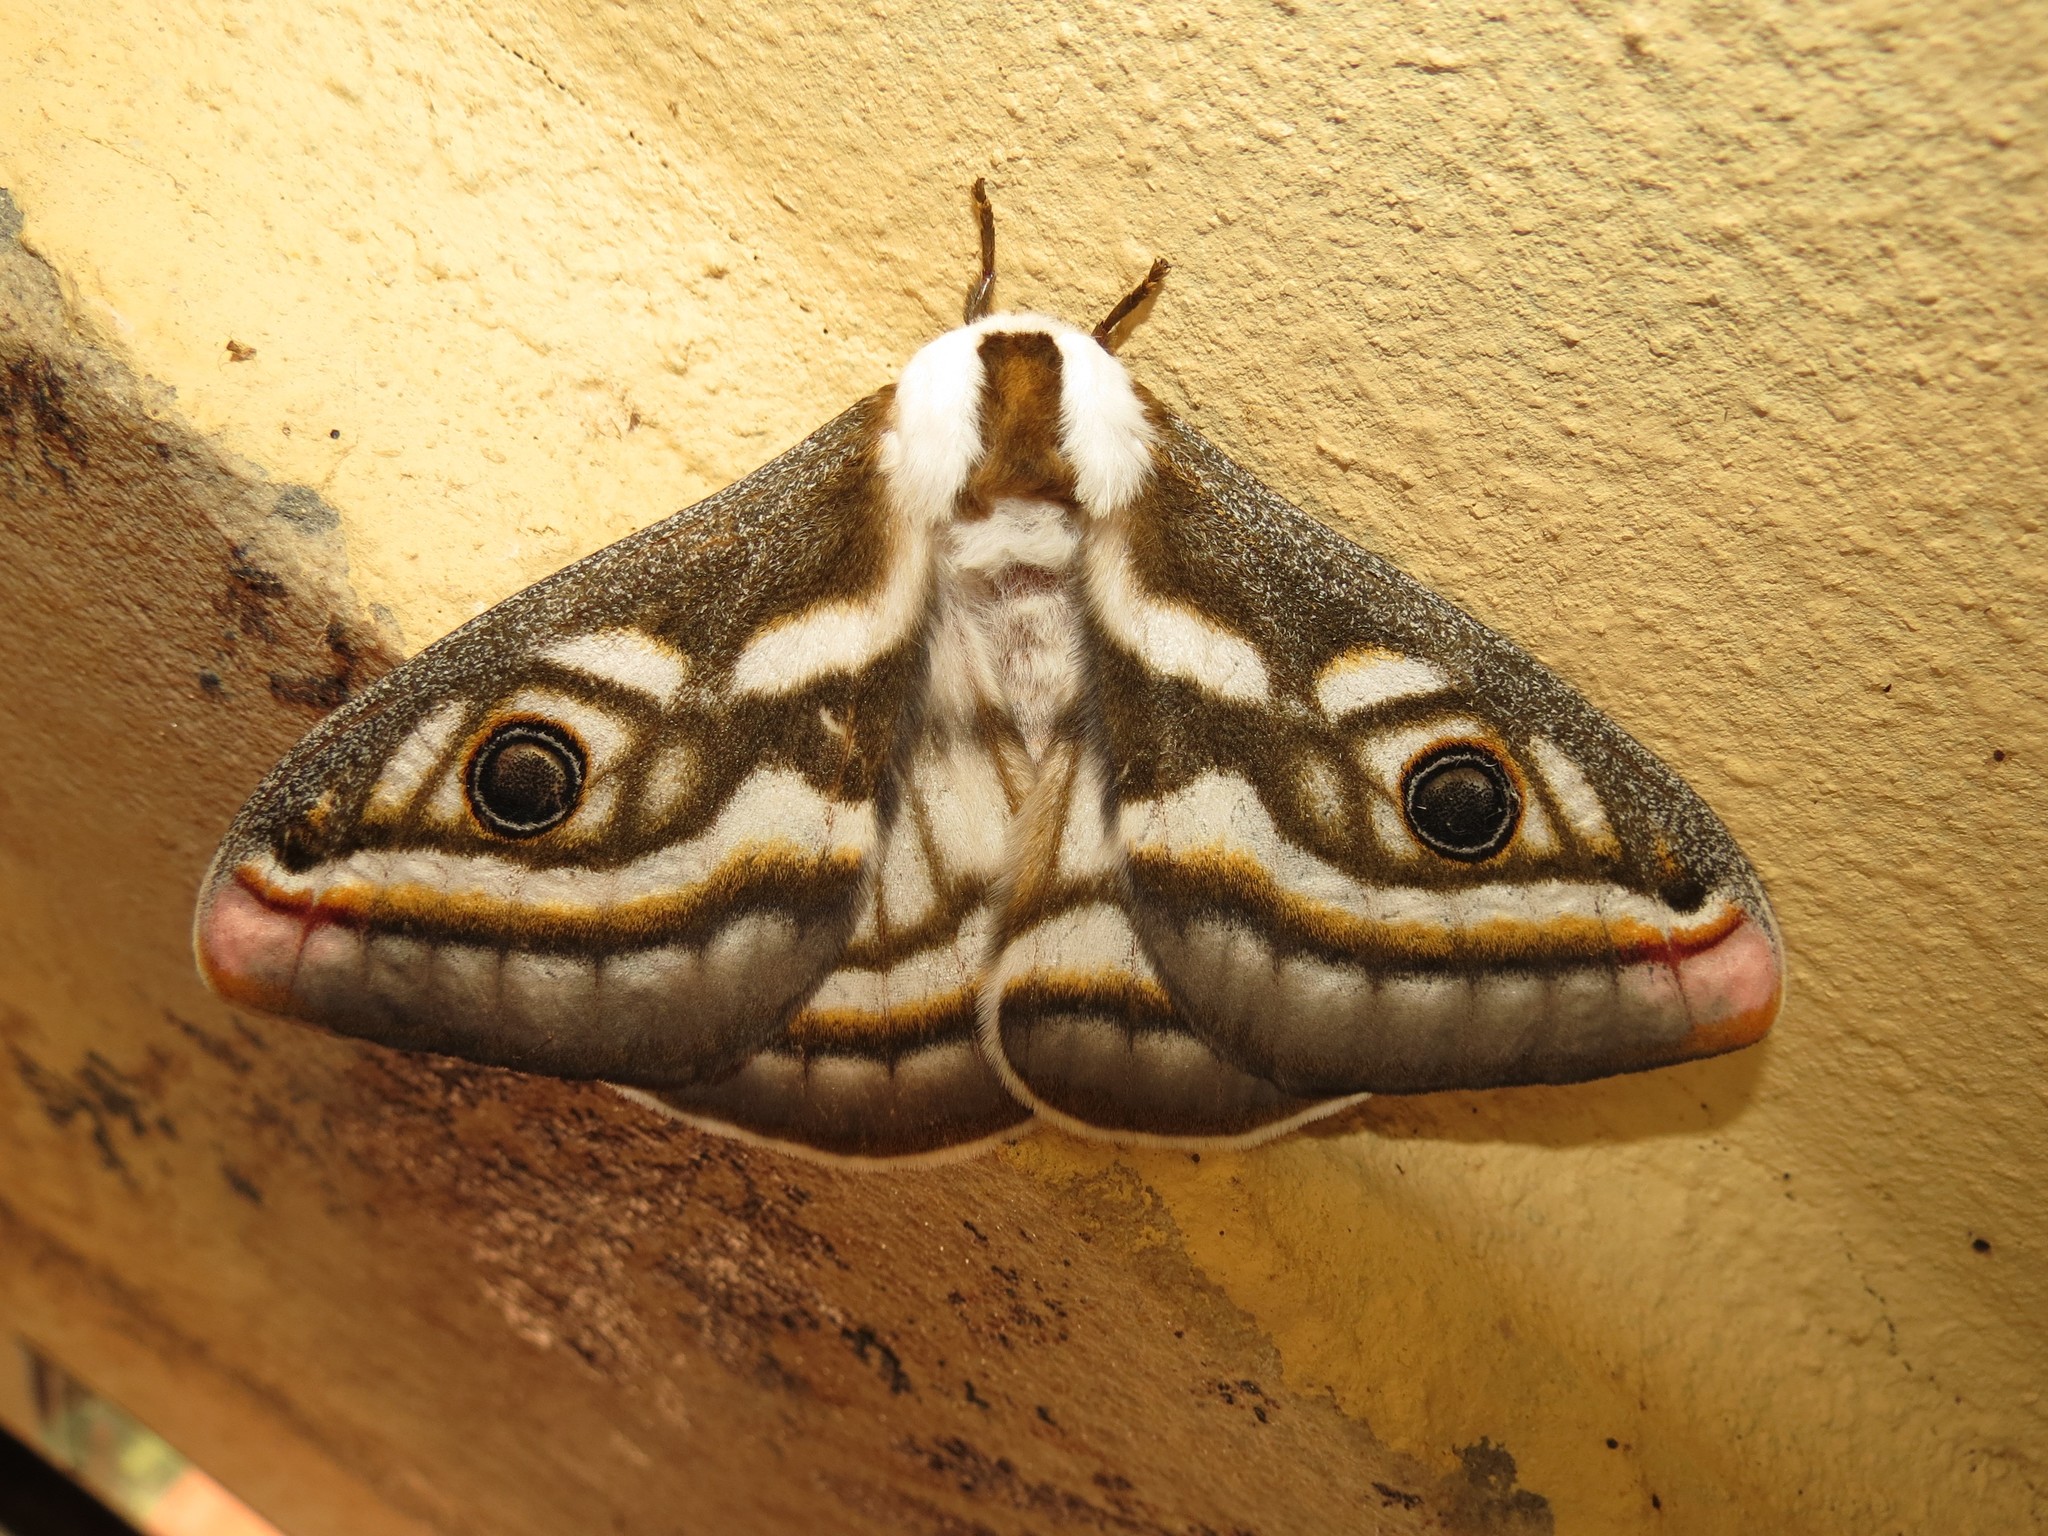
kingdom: Animalia
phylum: Arthropoda
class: Insecta
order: Lepidoptera
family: Saturniidae
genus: Heniocha
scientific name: Heniocha apollonia
